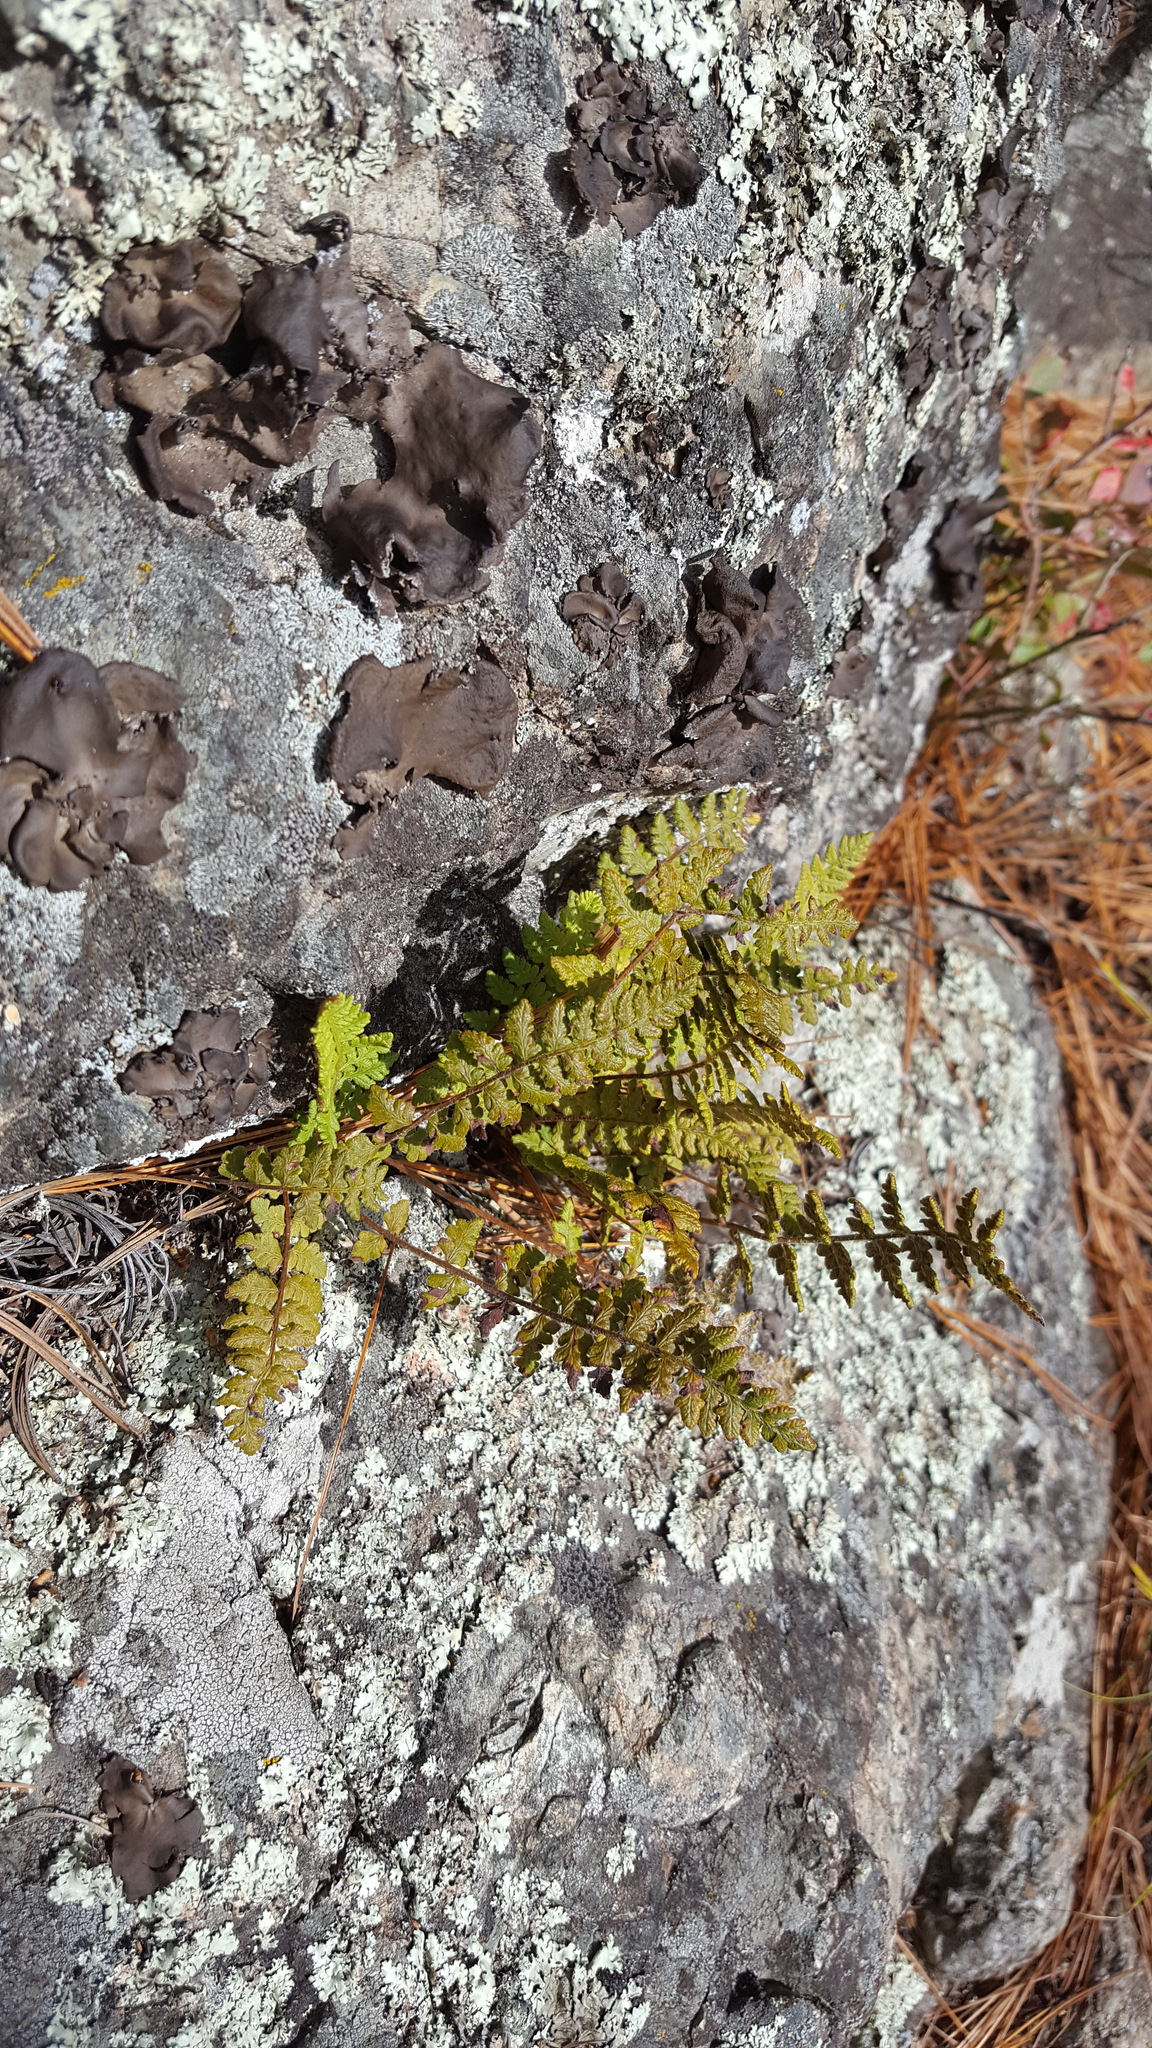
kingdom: Plantae
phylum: Tracheophyta
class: Polypodiopsida
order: Polypodiales
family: Woodsiaceae
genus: Woodsia
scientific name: Woodsia ilvensis
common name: Fragrant woodsia
